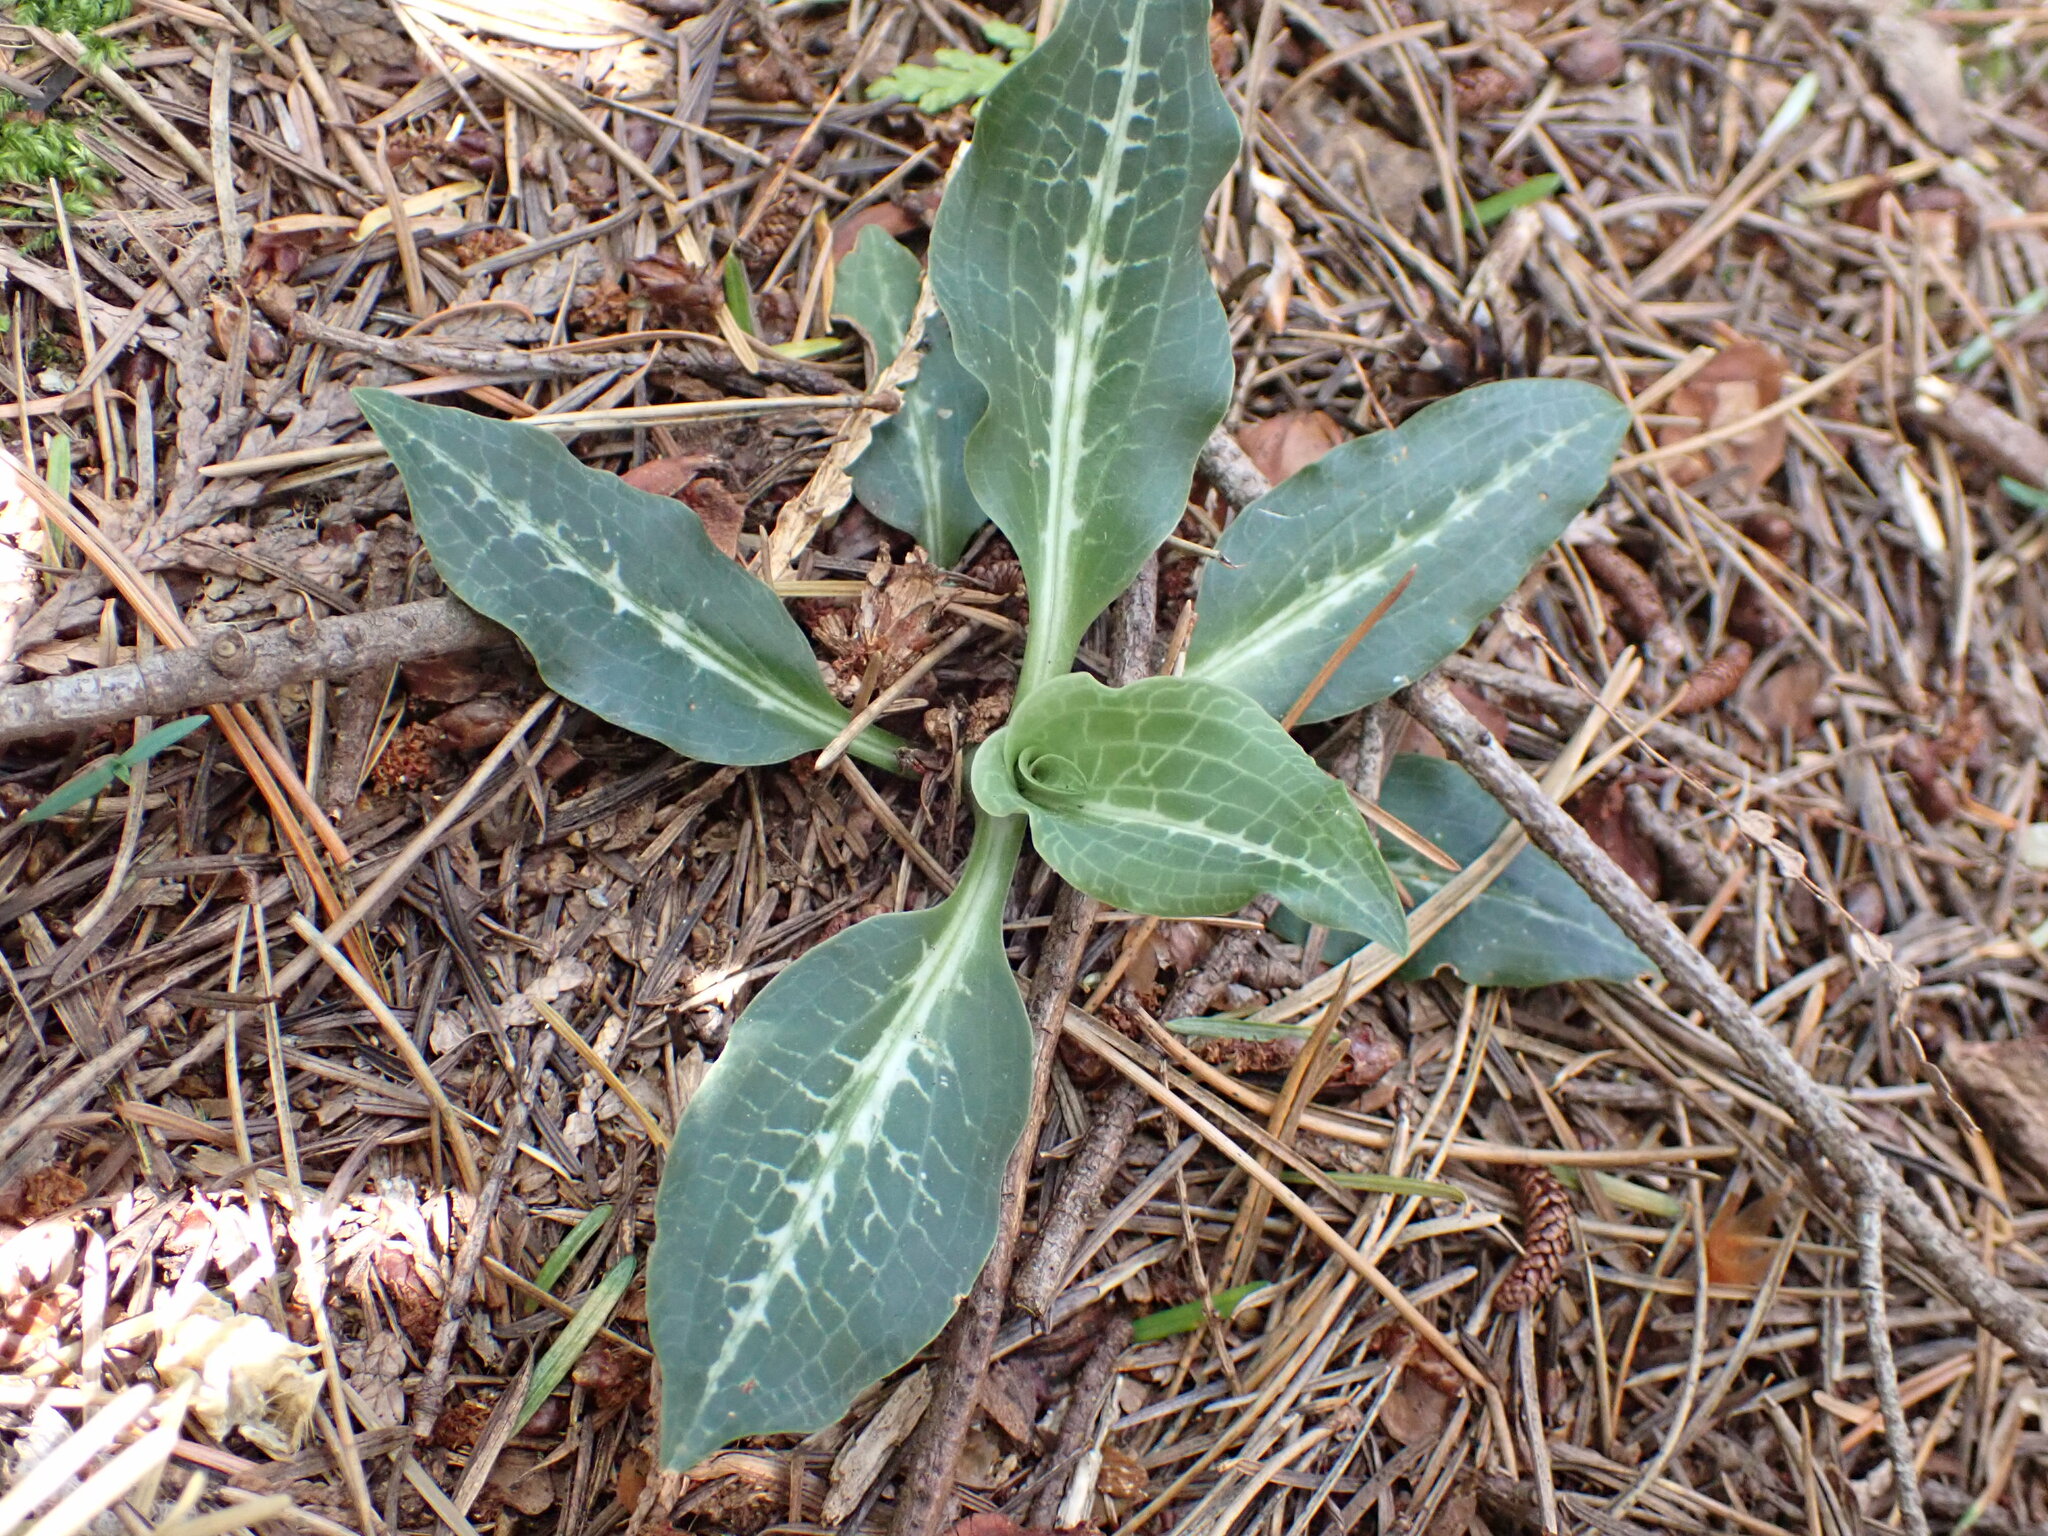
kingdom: Plantae
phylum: Tracheophyta
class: Liliopsida
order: Asparagales
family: Orchidaceae
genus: Goodyera
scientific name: Goodyera oblongifolia
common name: Giant rattlesnake-plantain
